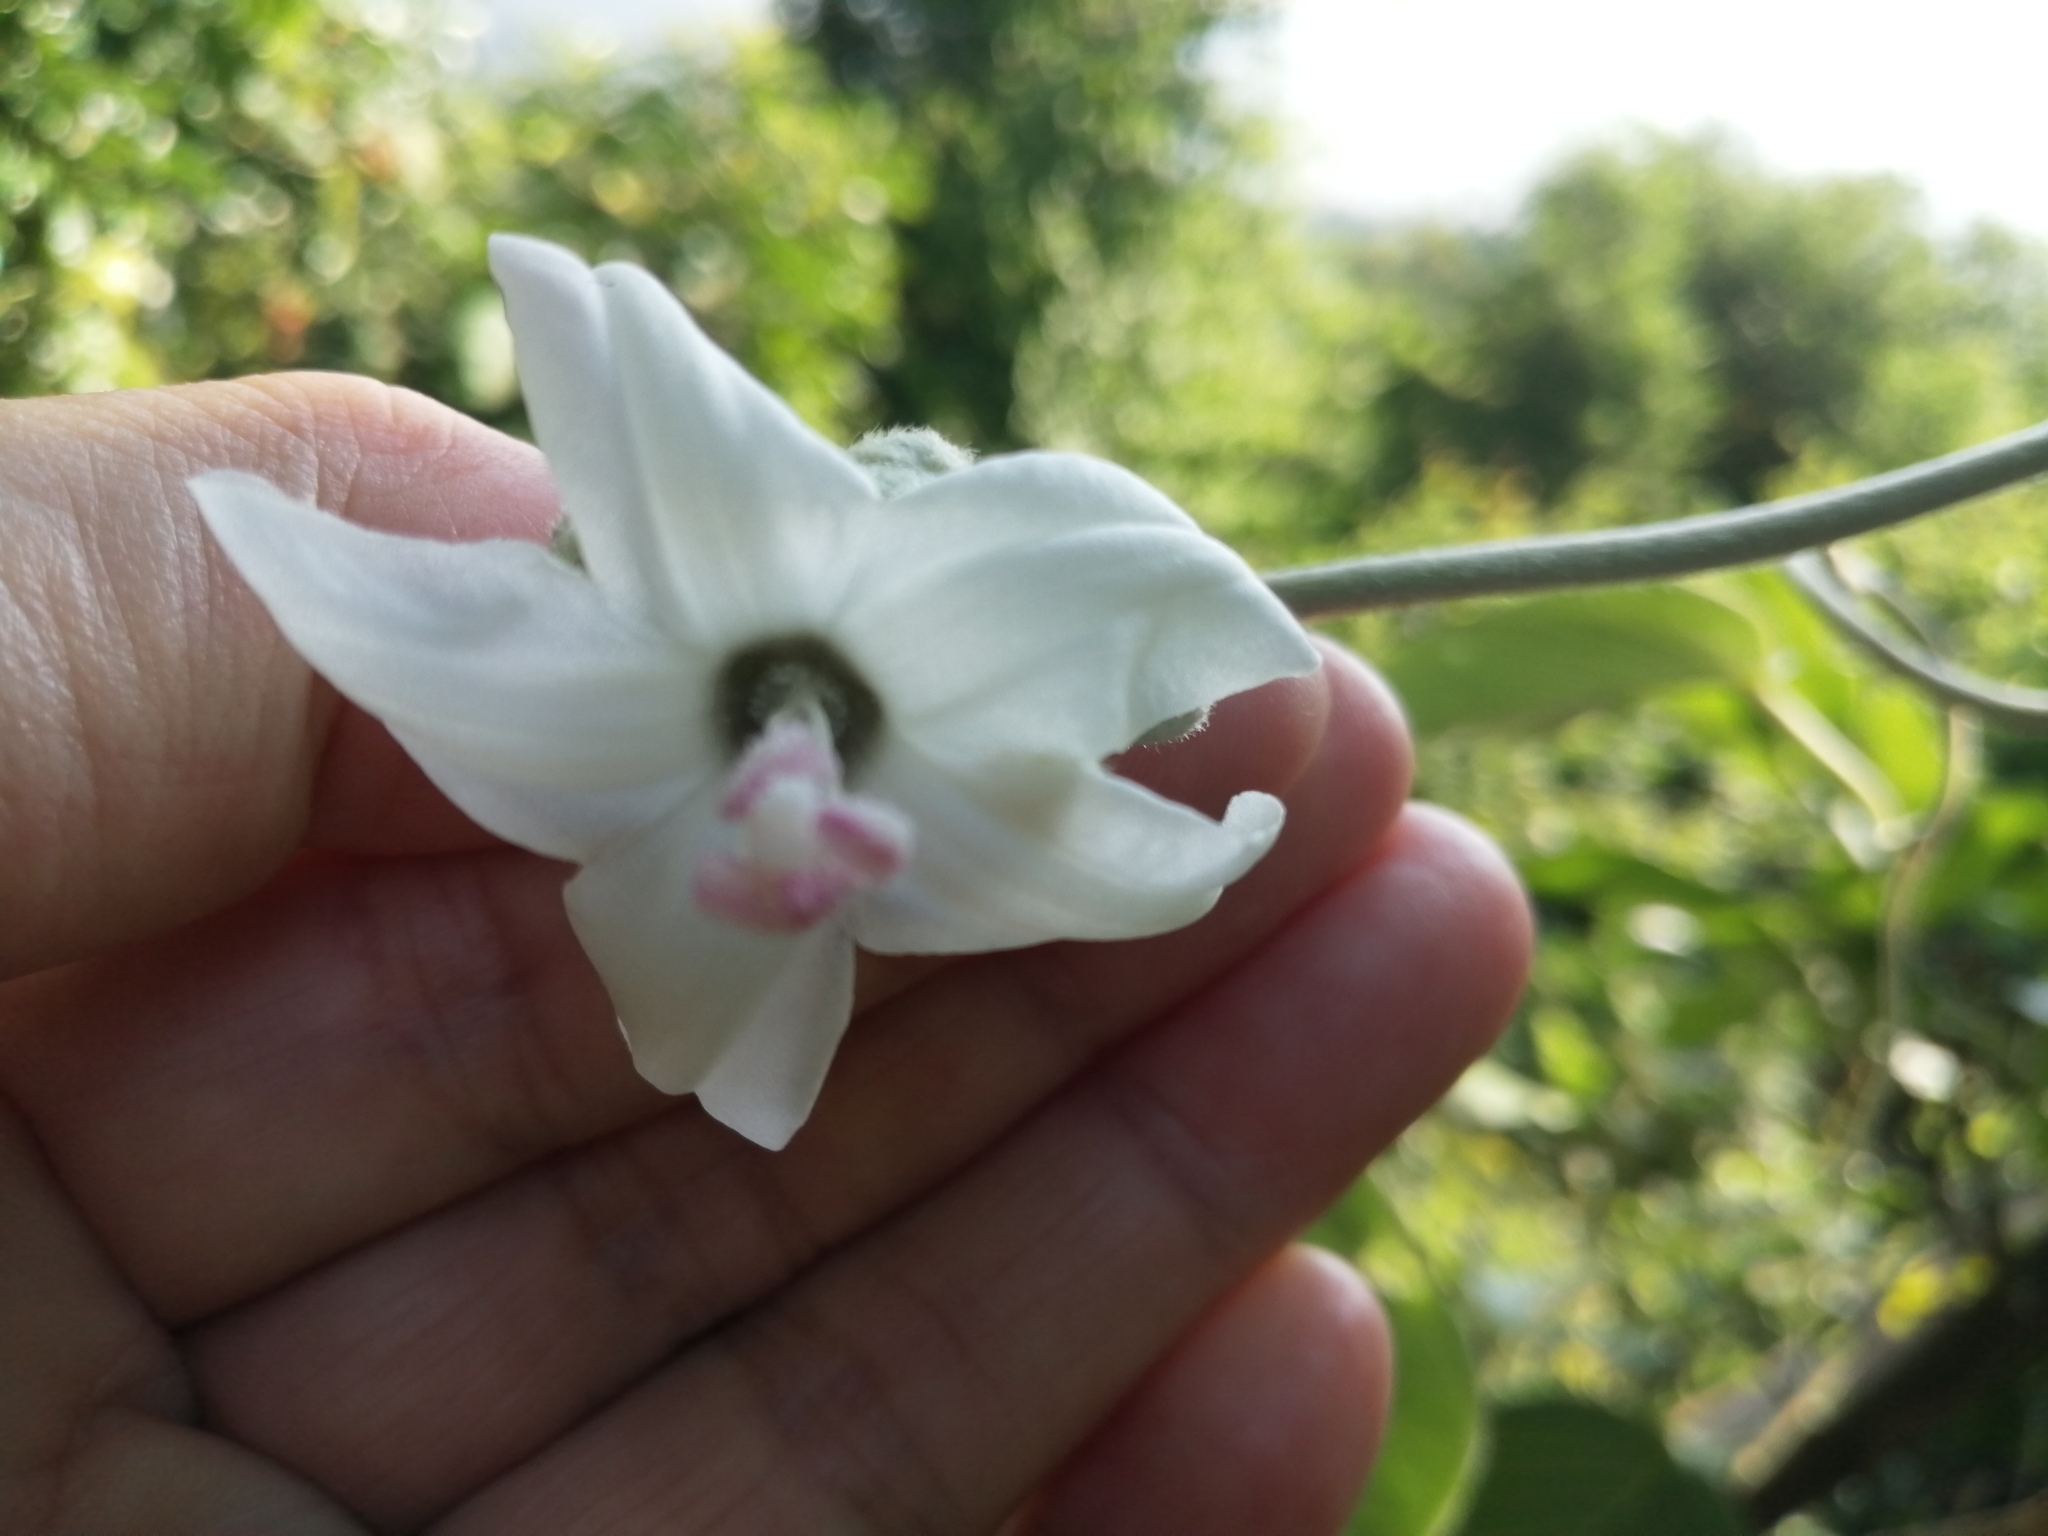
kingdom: Plantae
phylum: Tracheophyta
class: Magnoliopsida
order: Solanales
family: Convolvulaceae
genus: Argyreia
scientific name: Argyreia formosana
